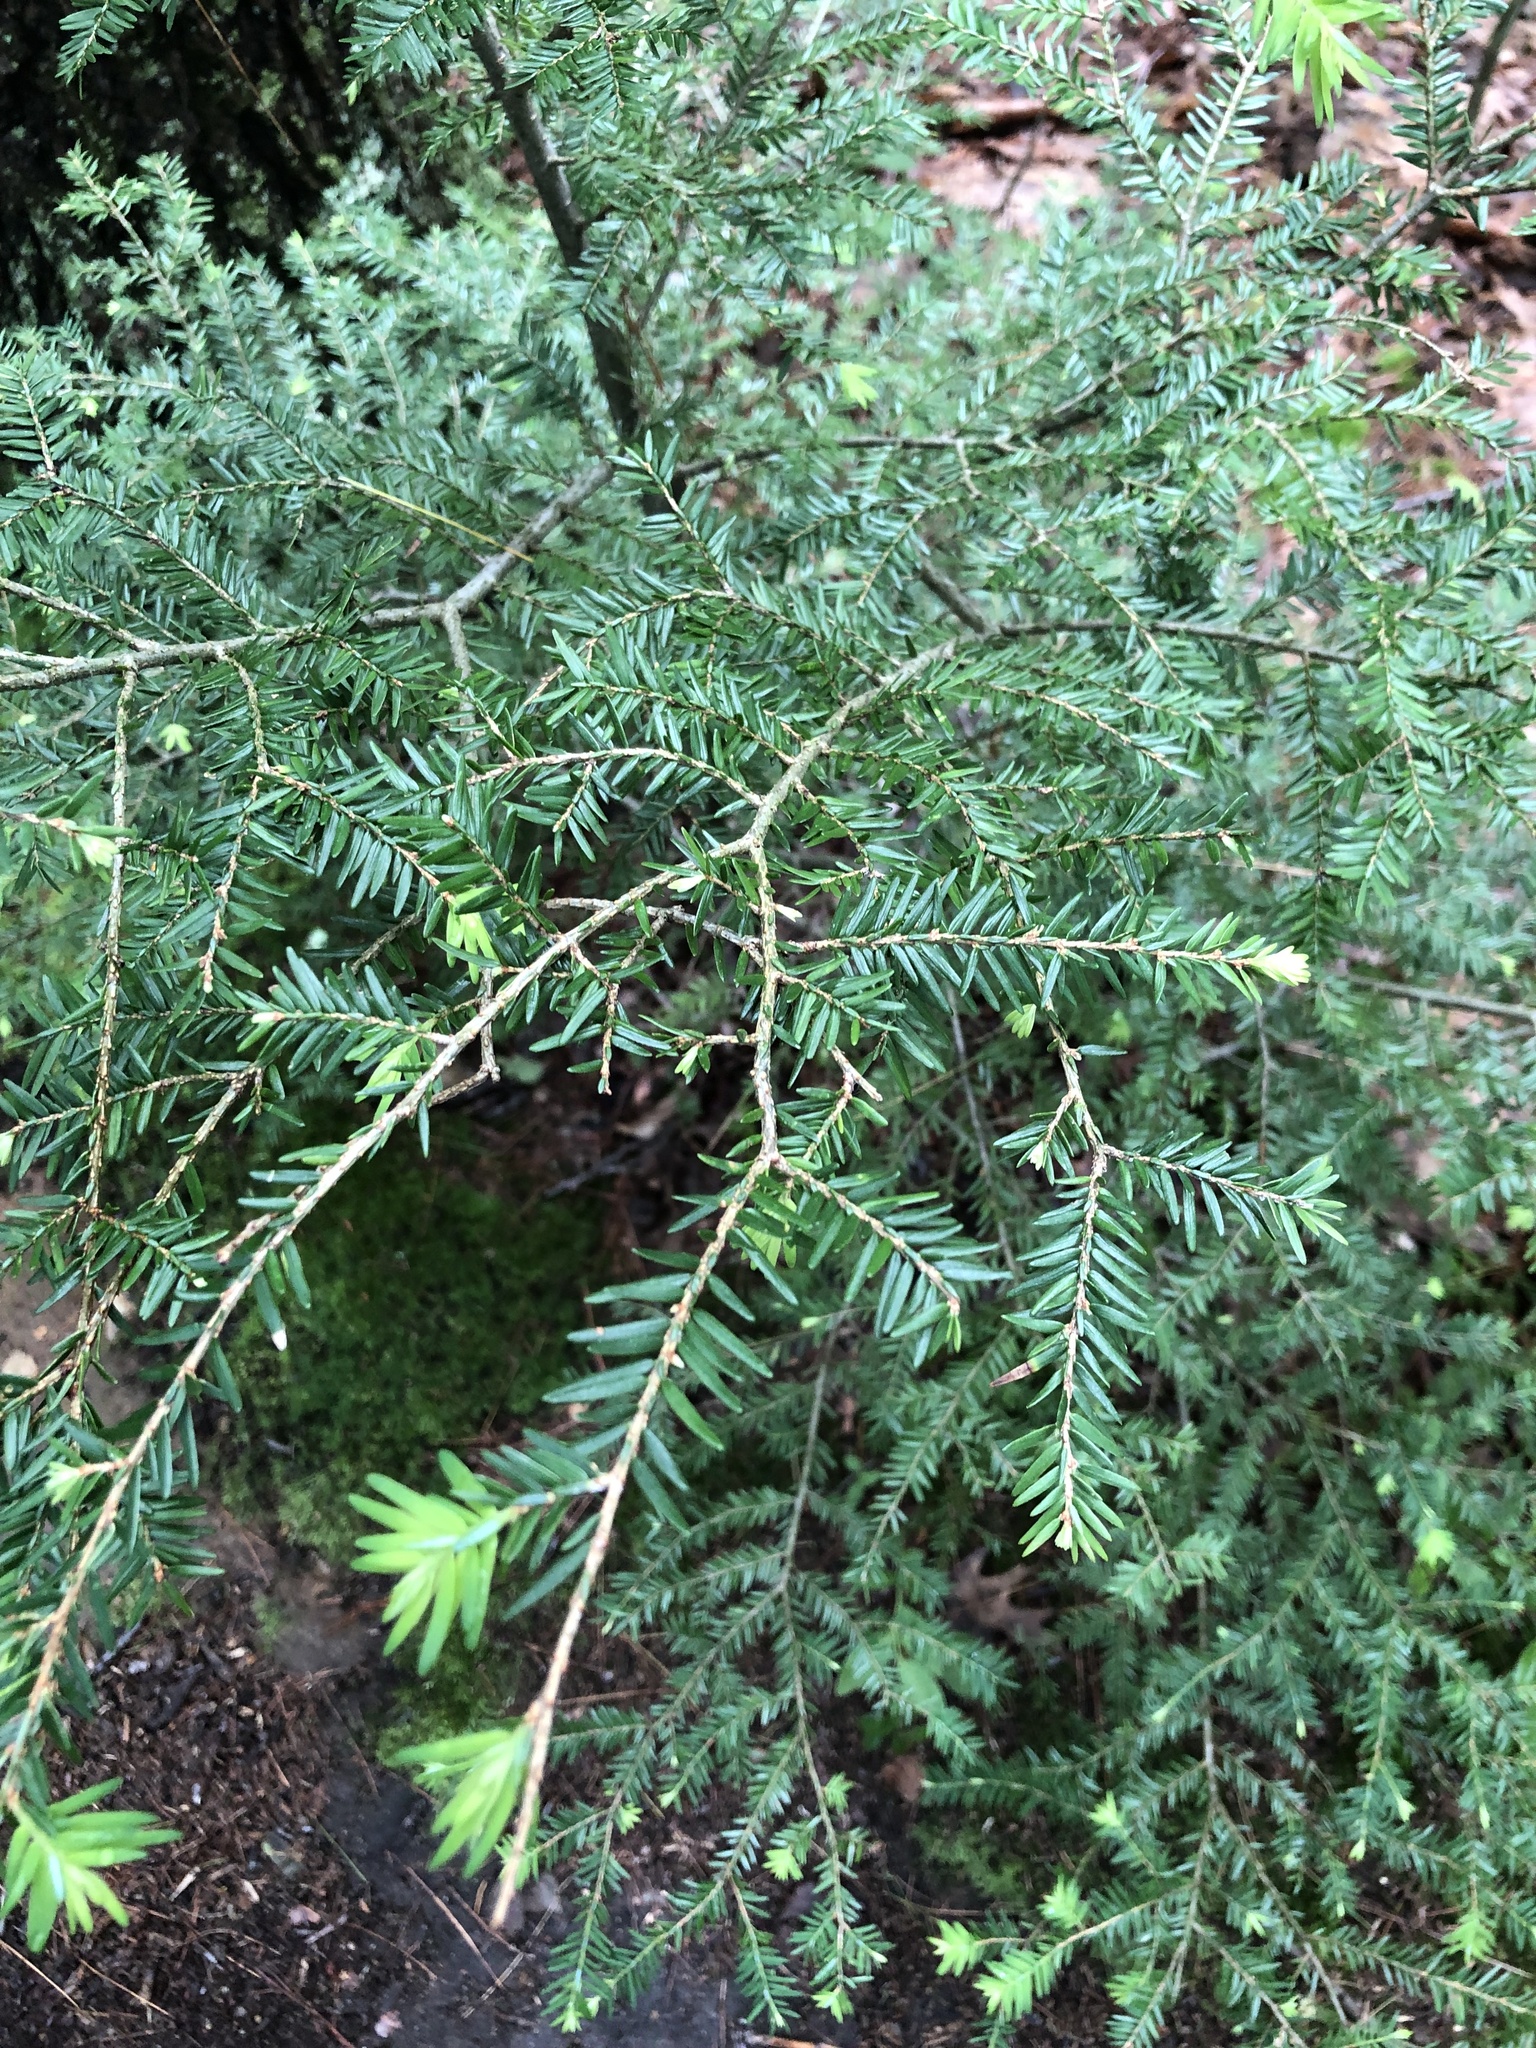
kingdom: Plantae
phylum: Tracheophyta
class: Pinopsida
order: Pinales
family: Pinaceae
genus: Tsuga
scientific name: Tsuga canadensis
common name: Eastern hemlock
